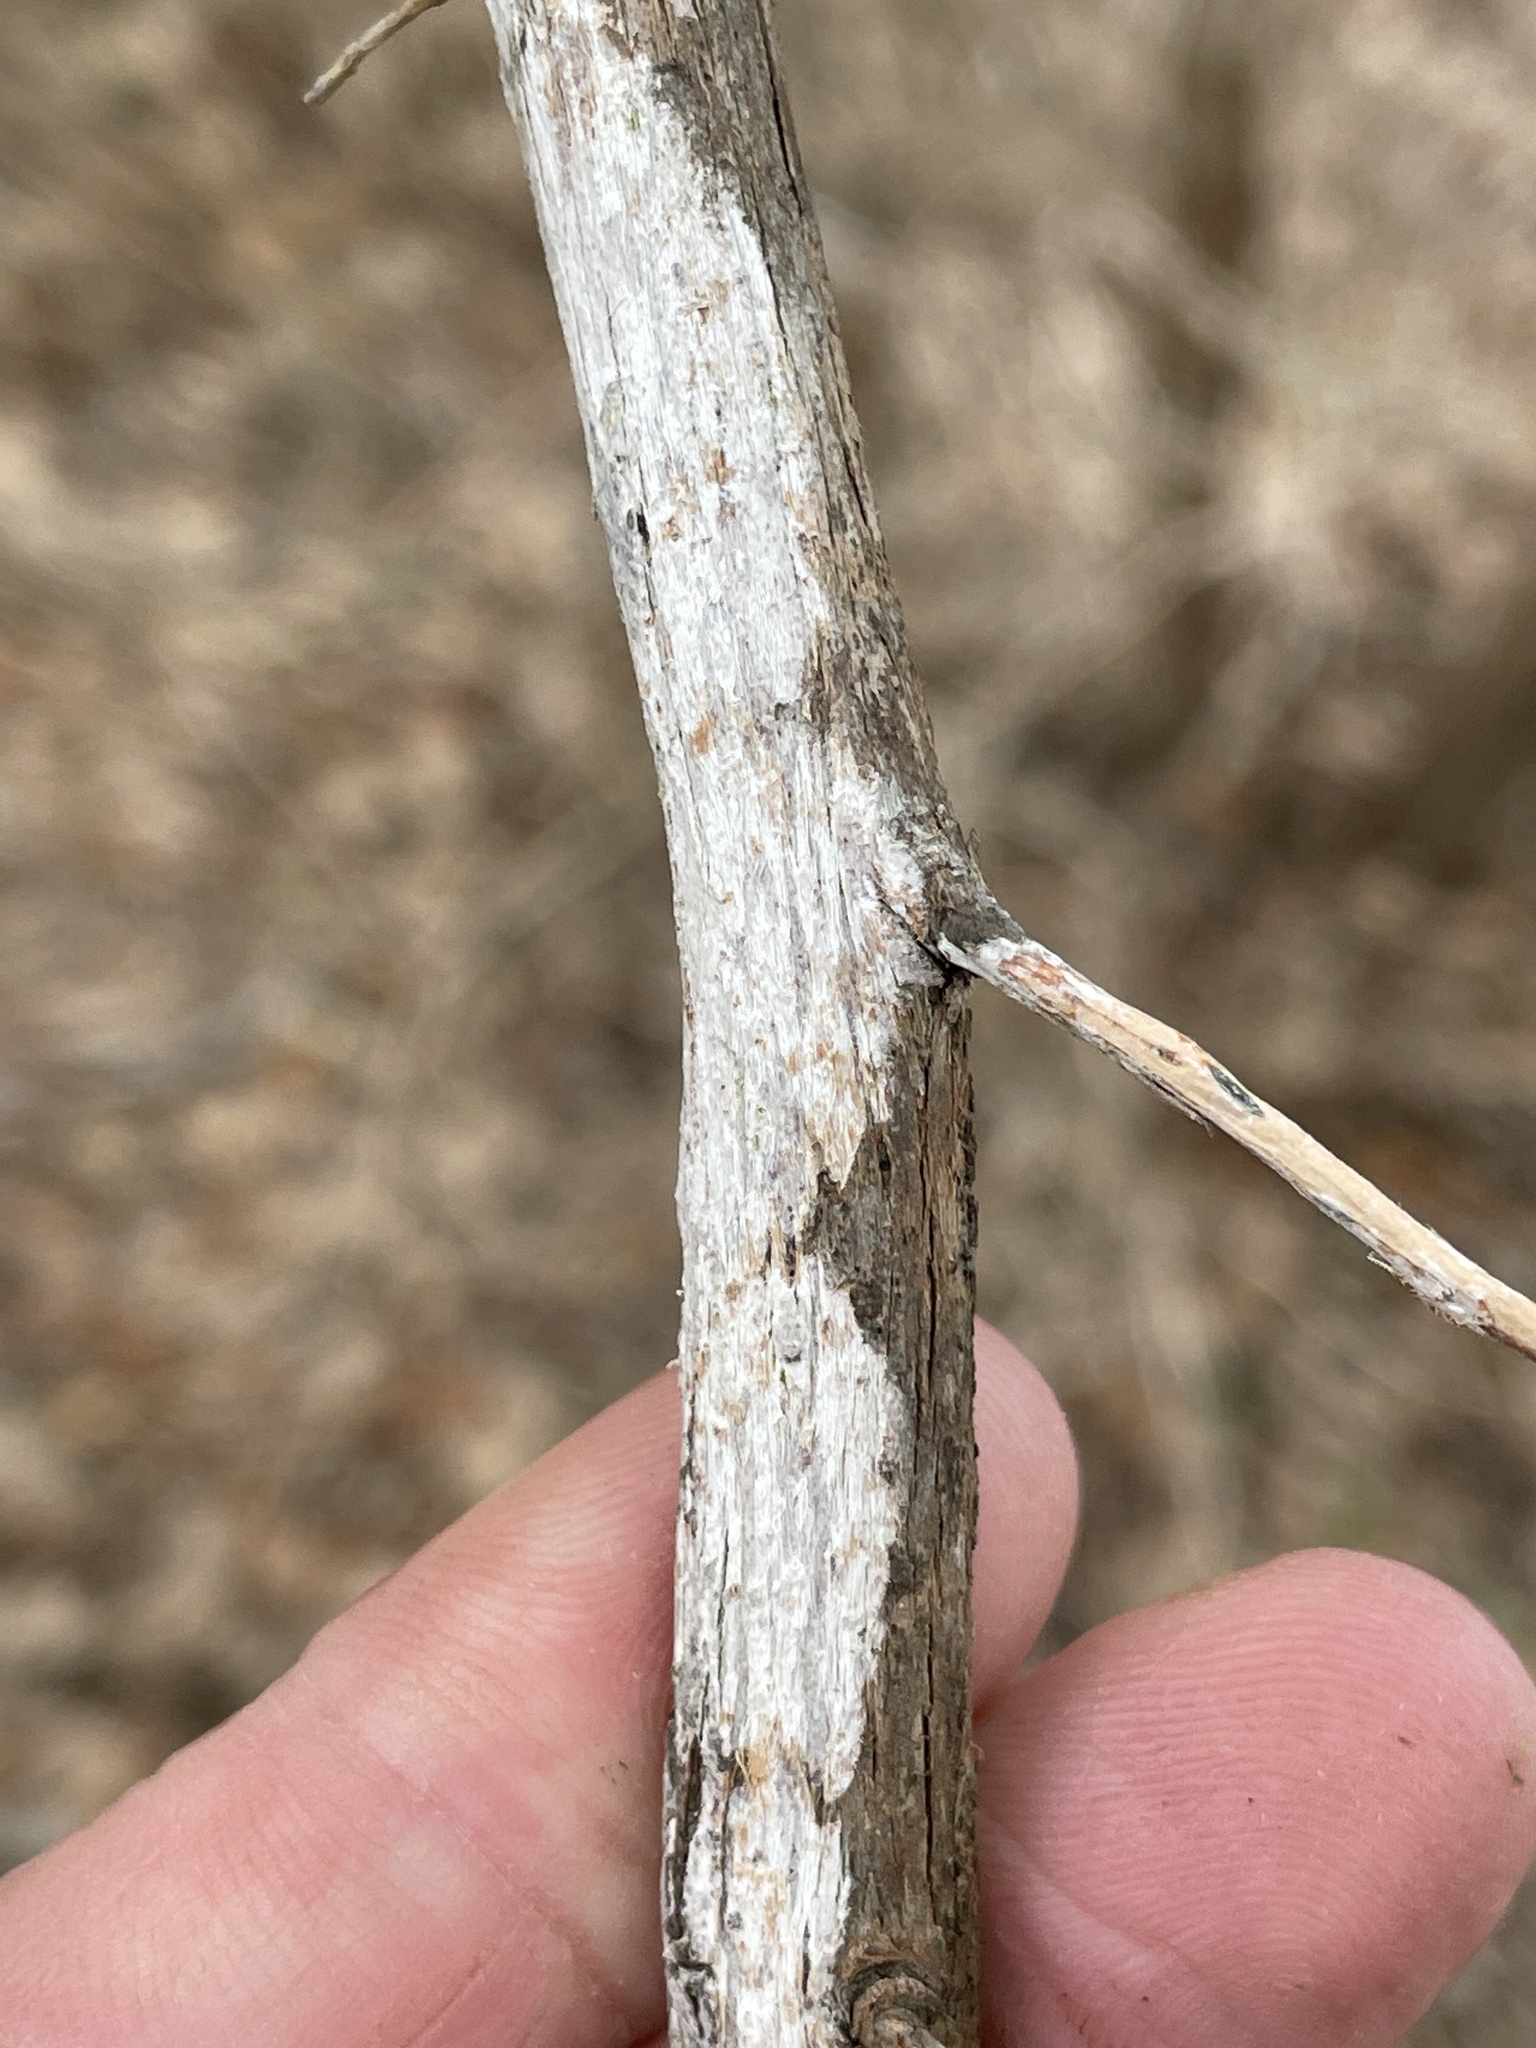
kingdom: Fungi
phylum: Ascomycota
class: Lecanoromycetes
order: Ostropales
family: Stictidaceae
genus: Robergea
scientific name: Robergea
